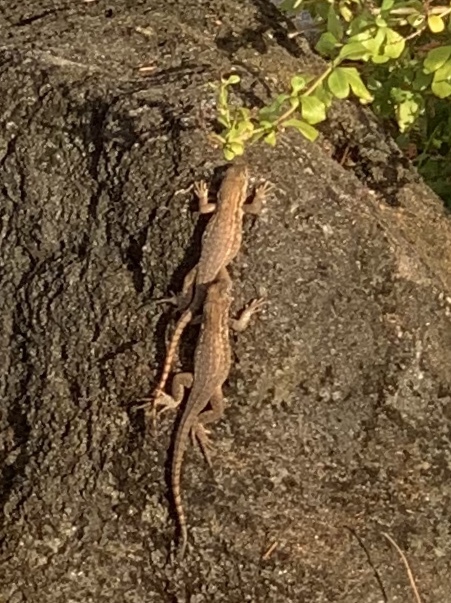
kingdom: Animalia
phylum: Chordata
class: Squamata
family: Leiocephalidae
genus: Leiocephalus
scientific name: Leiocephalus carinatus
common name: Northern curly-tailed lizard
